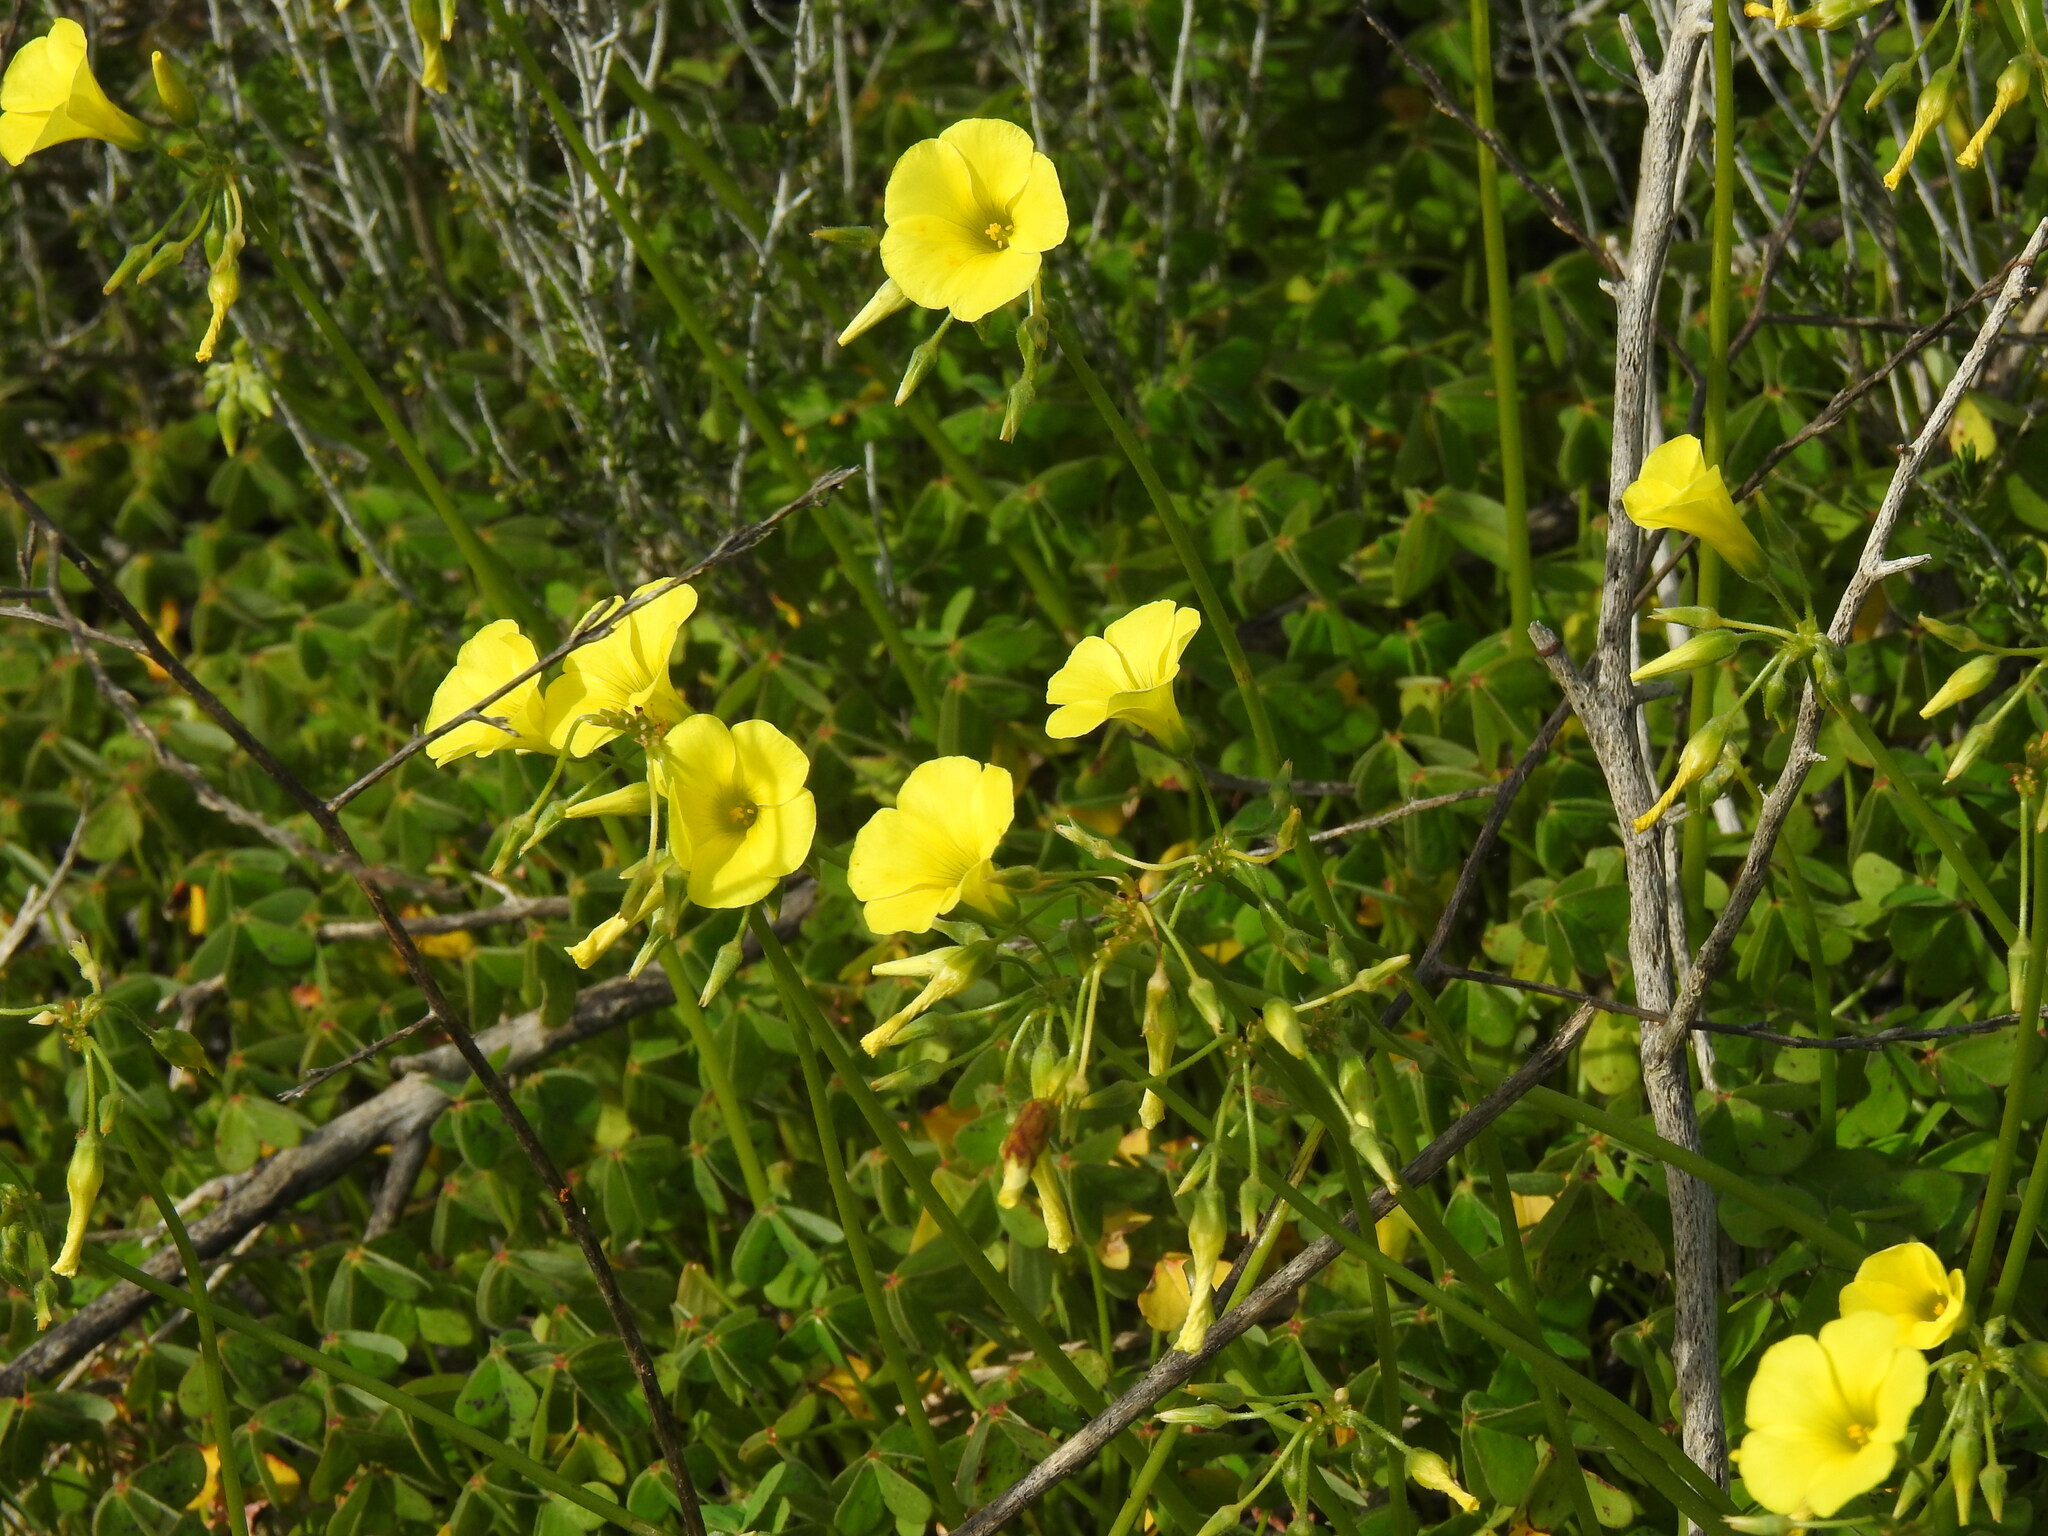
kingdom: Plantae
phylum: Tracheophyta
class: Magnoliopsida
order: Oxalidales
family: Oxalidaceae
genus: Oxalis
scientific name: Oxalis pes-caprae
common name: Bermuda-buttercup
